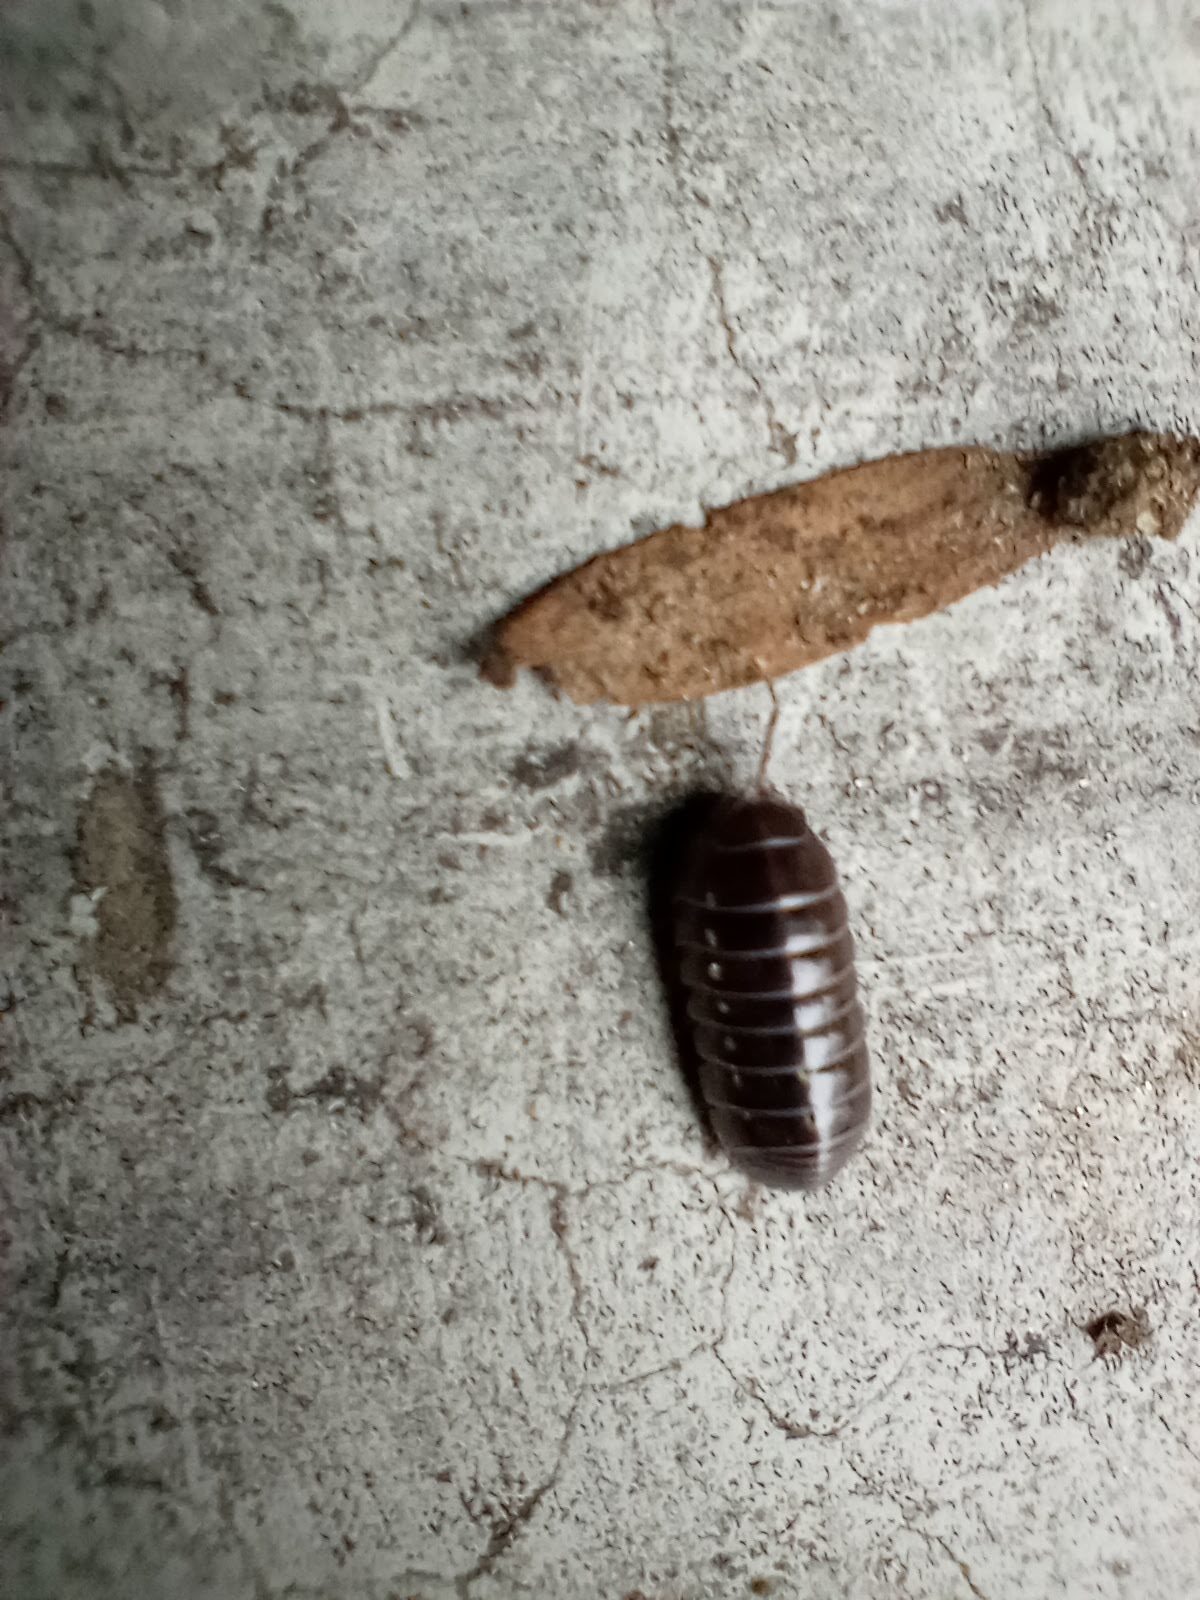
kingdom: Animalia
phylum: Arthropoda
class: Malacostraca
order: Isopoda
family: Armadillidiidae
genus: Armadillidium
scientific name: Armadillidium vulgare
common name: Common pill woodlouse
